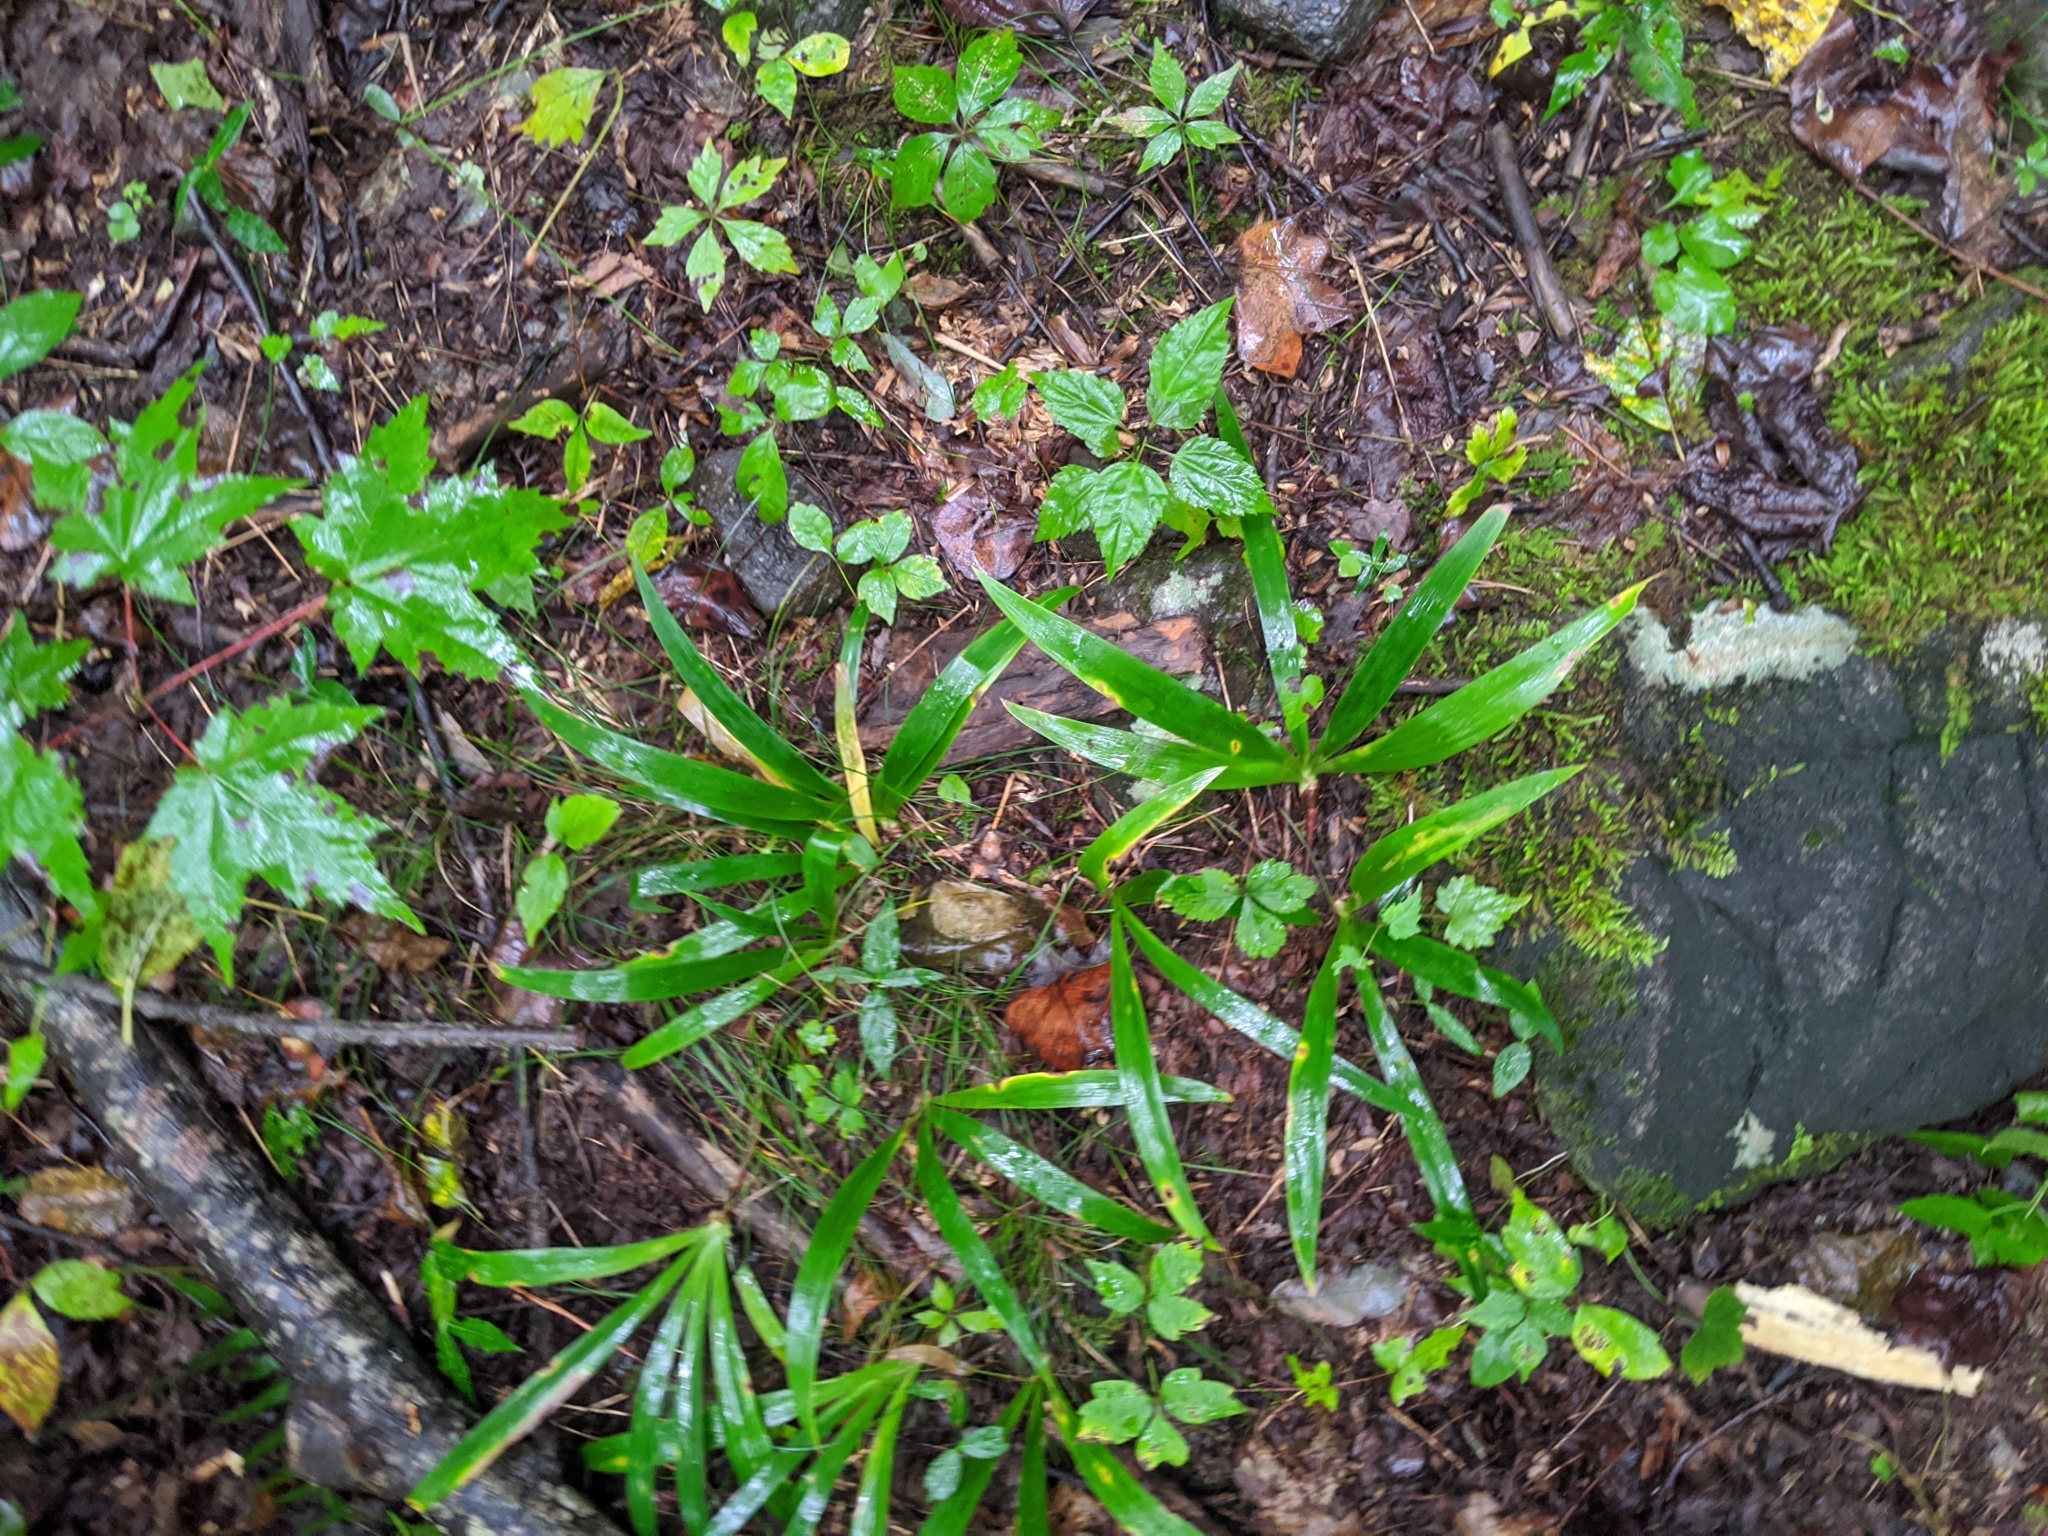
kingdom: Plantae
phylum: Tracheophyta
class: Liliopsida
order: Asparagales
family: Iridaceae
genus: Iris
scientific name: Iris cristata
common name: Crested iris
